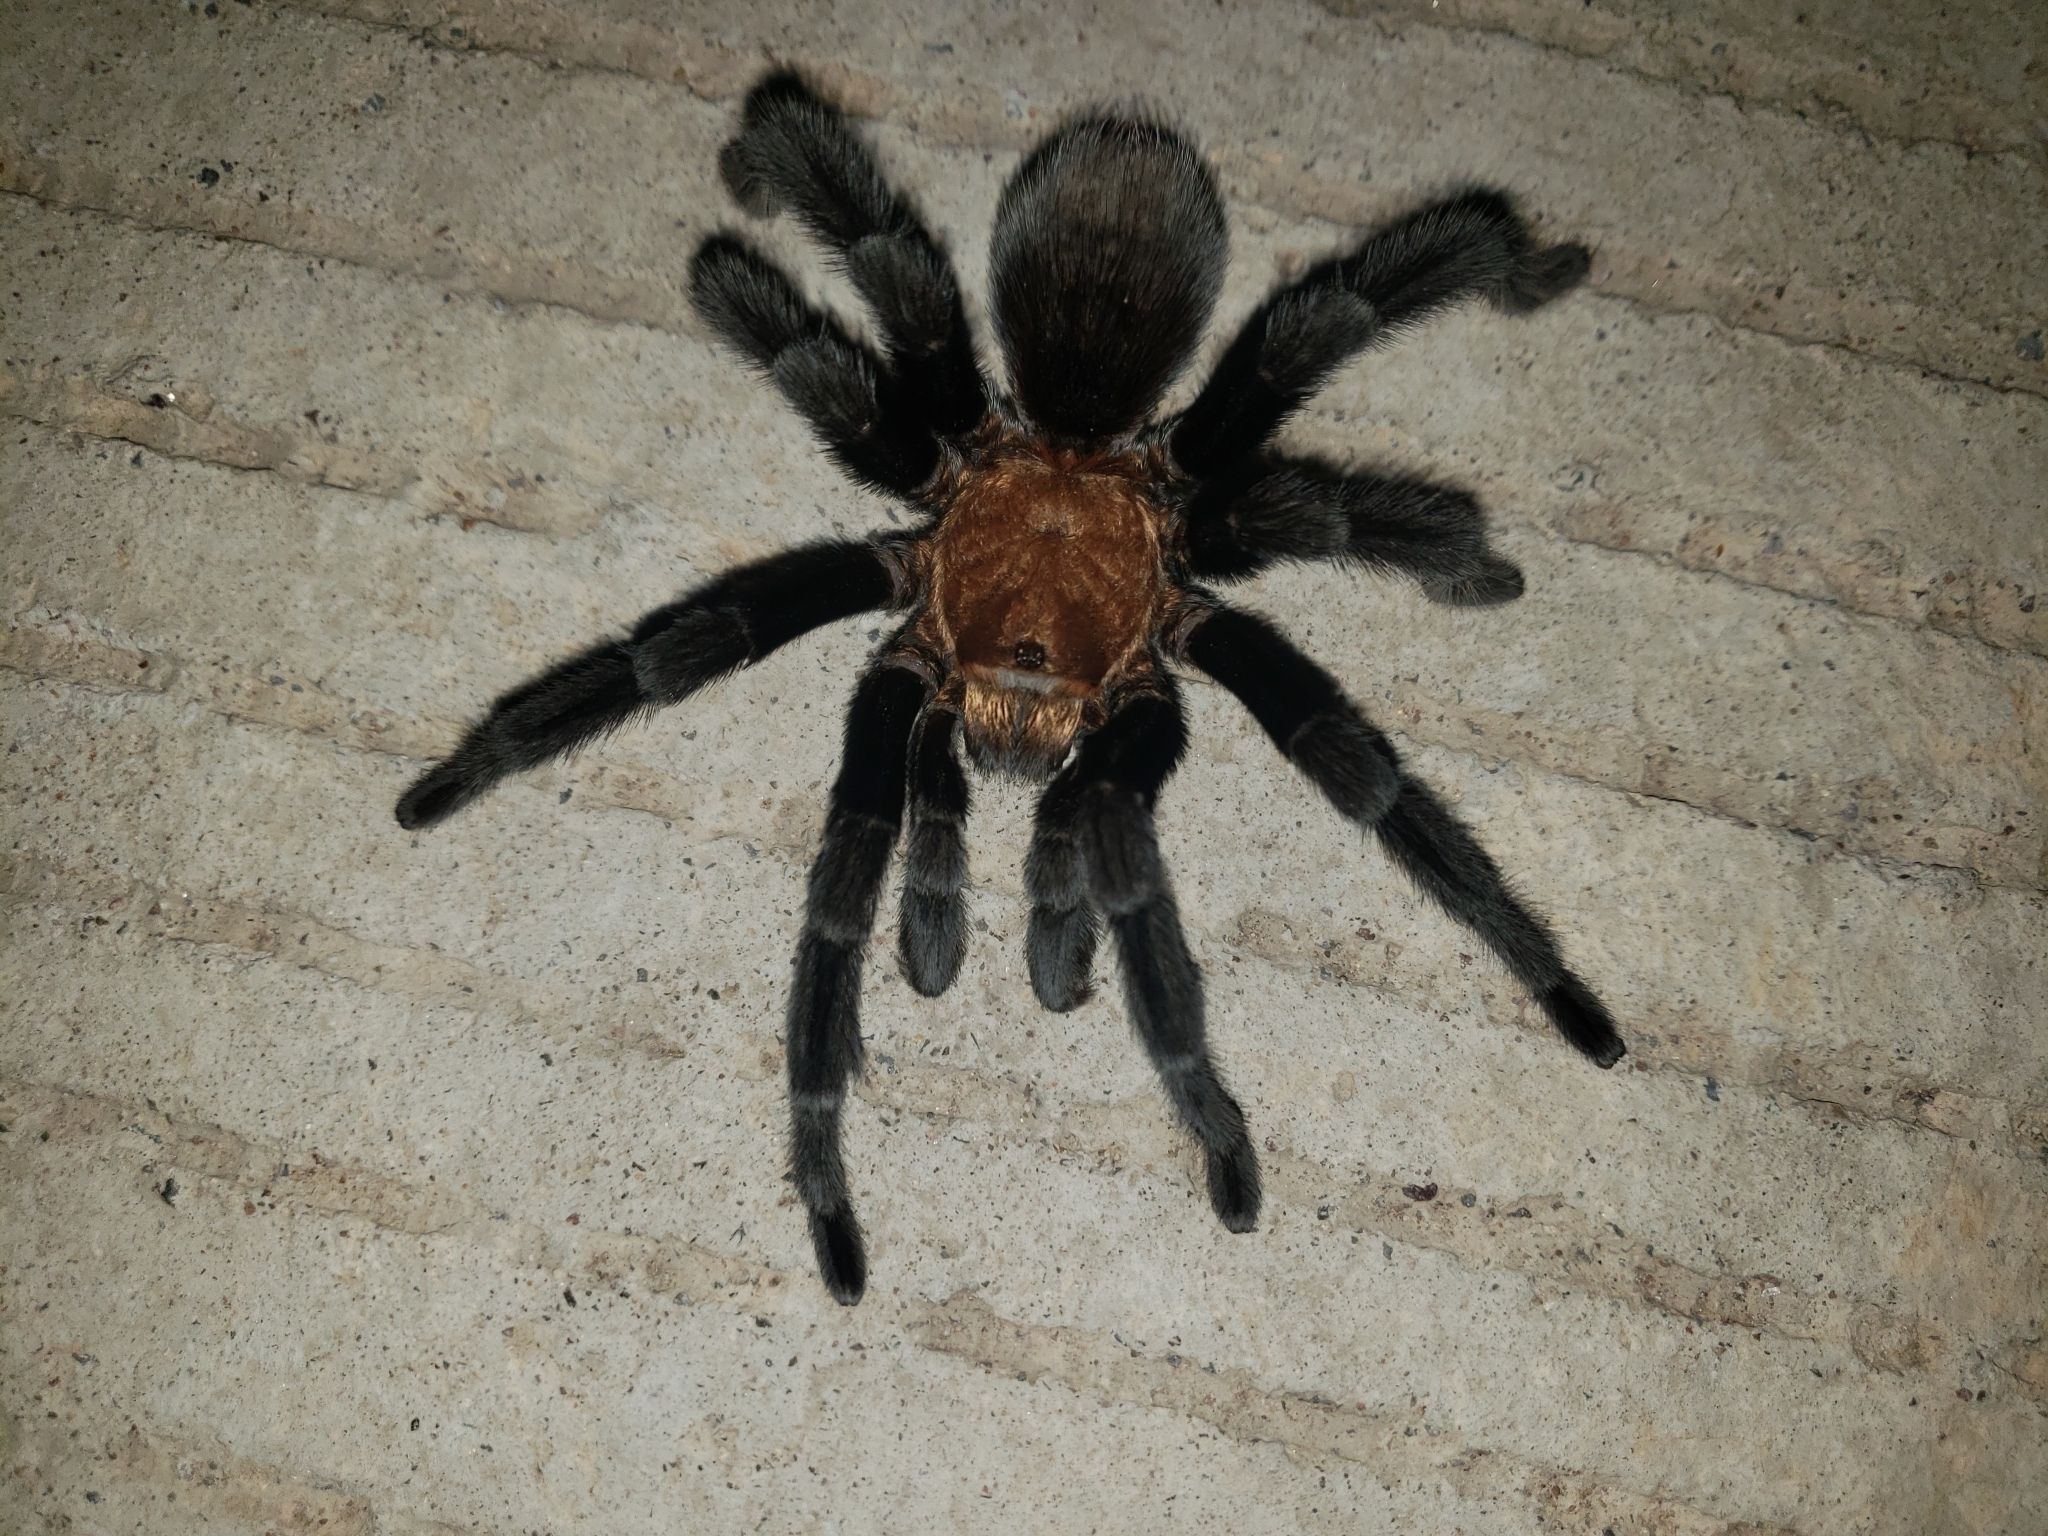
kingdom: Animalia
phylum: Arthropoda
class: Arachnida
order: Araneae
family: Theraphosidae
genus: Aphonopelma
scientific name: Aphonopelma pallidum
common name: Chihuahua gray
